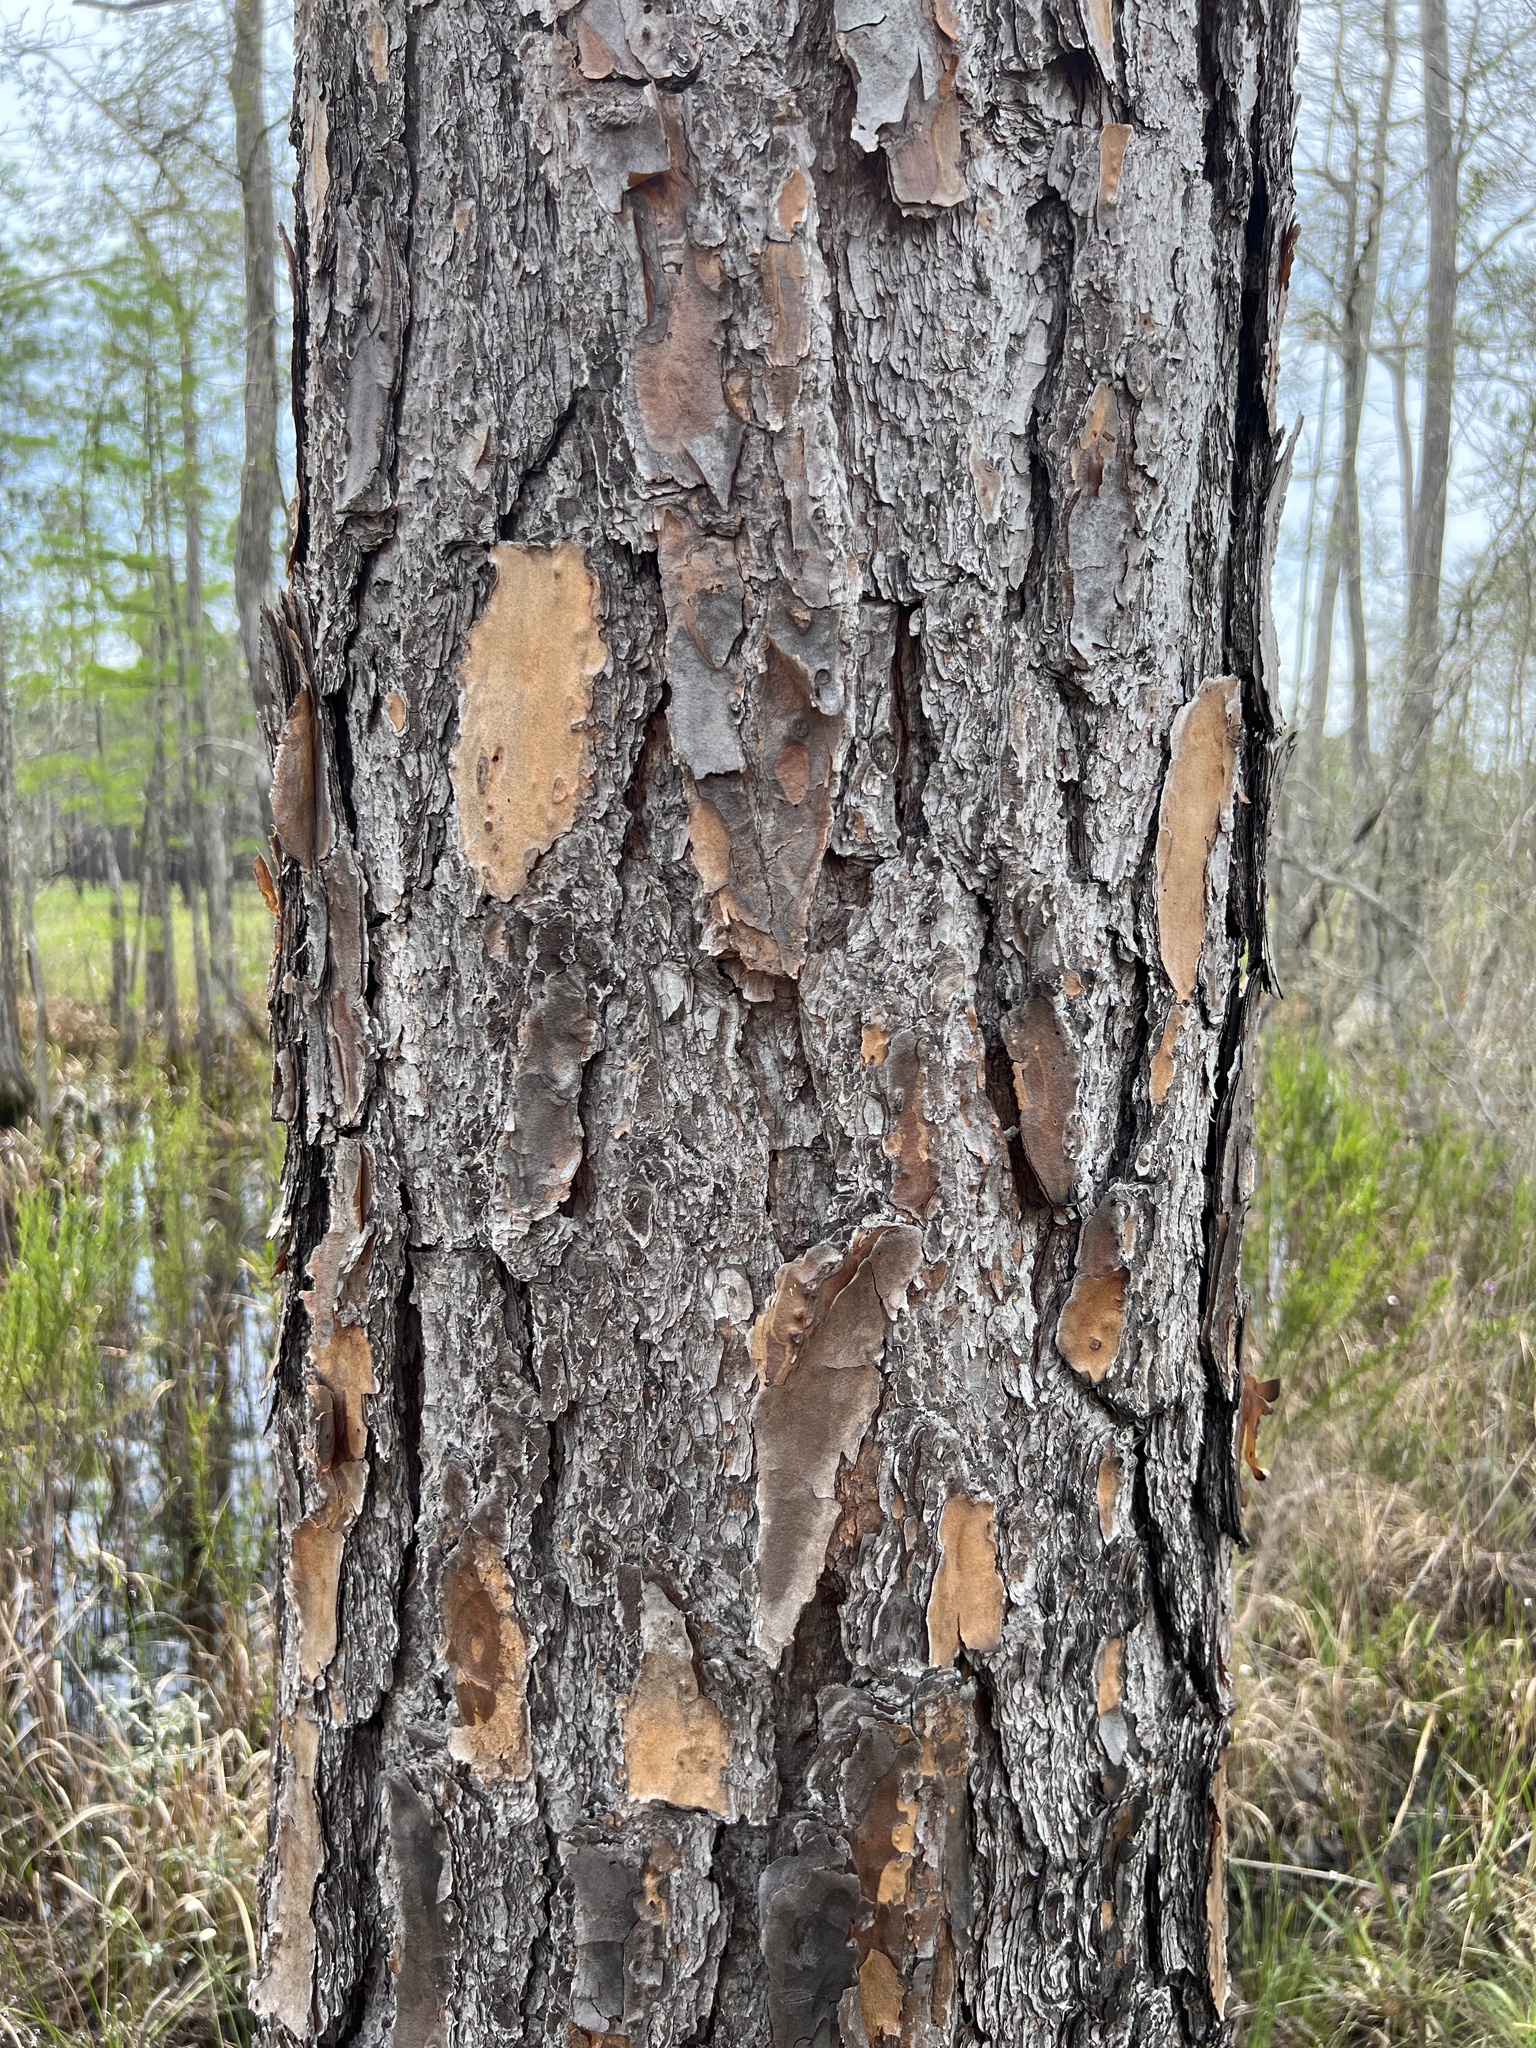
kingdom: Plantae
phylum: Tracheophyta
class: Pinopsida
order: Pinales
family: Pinaceae
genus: Pinus
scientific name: Pinus elliottii
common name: Slash pine
